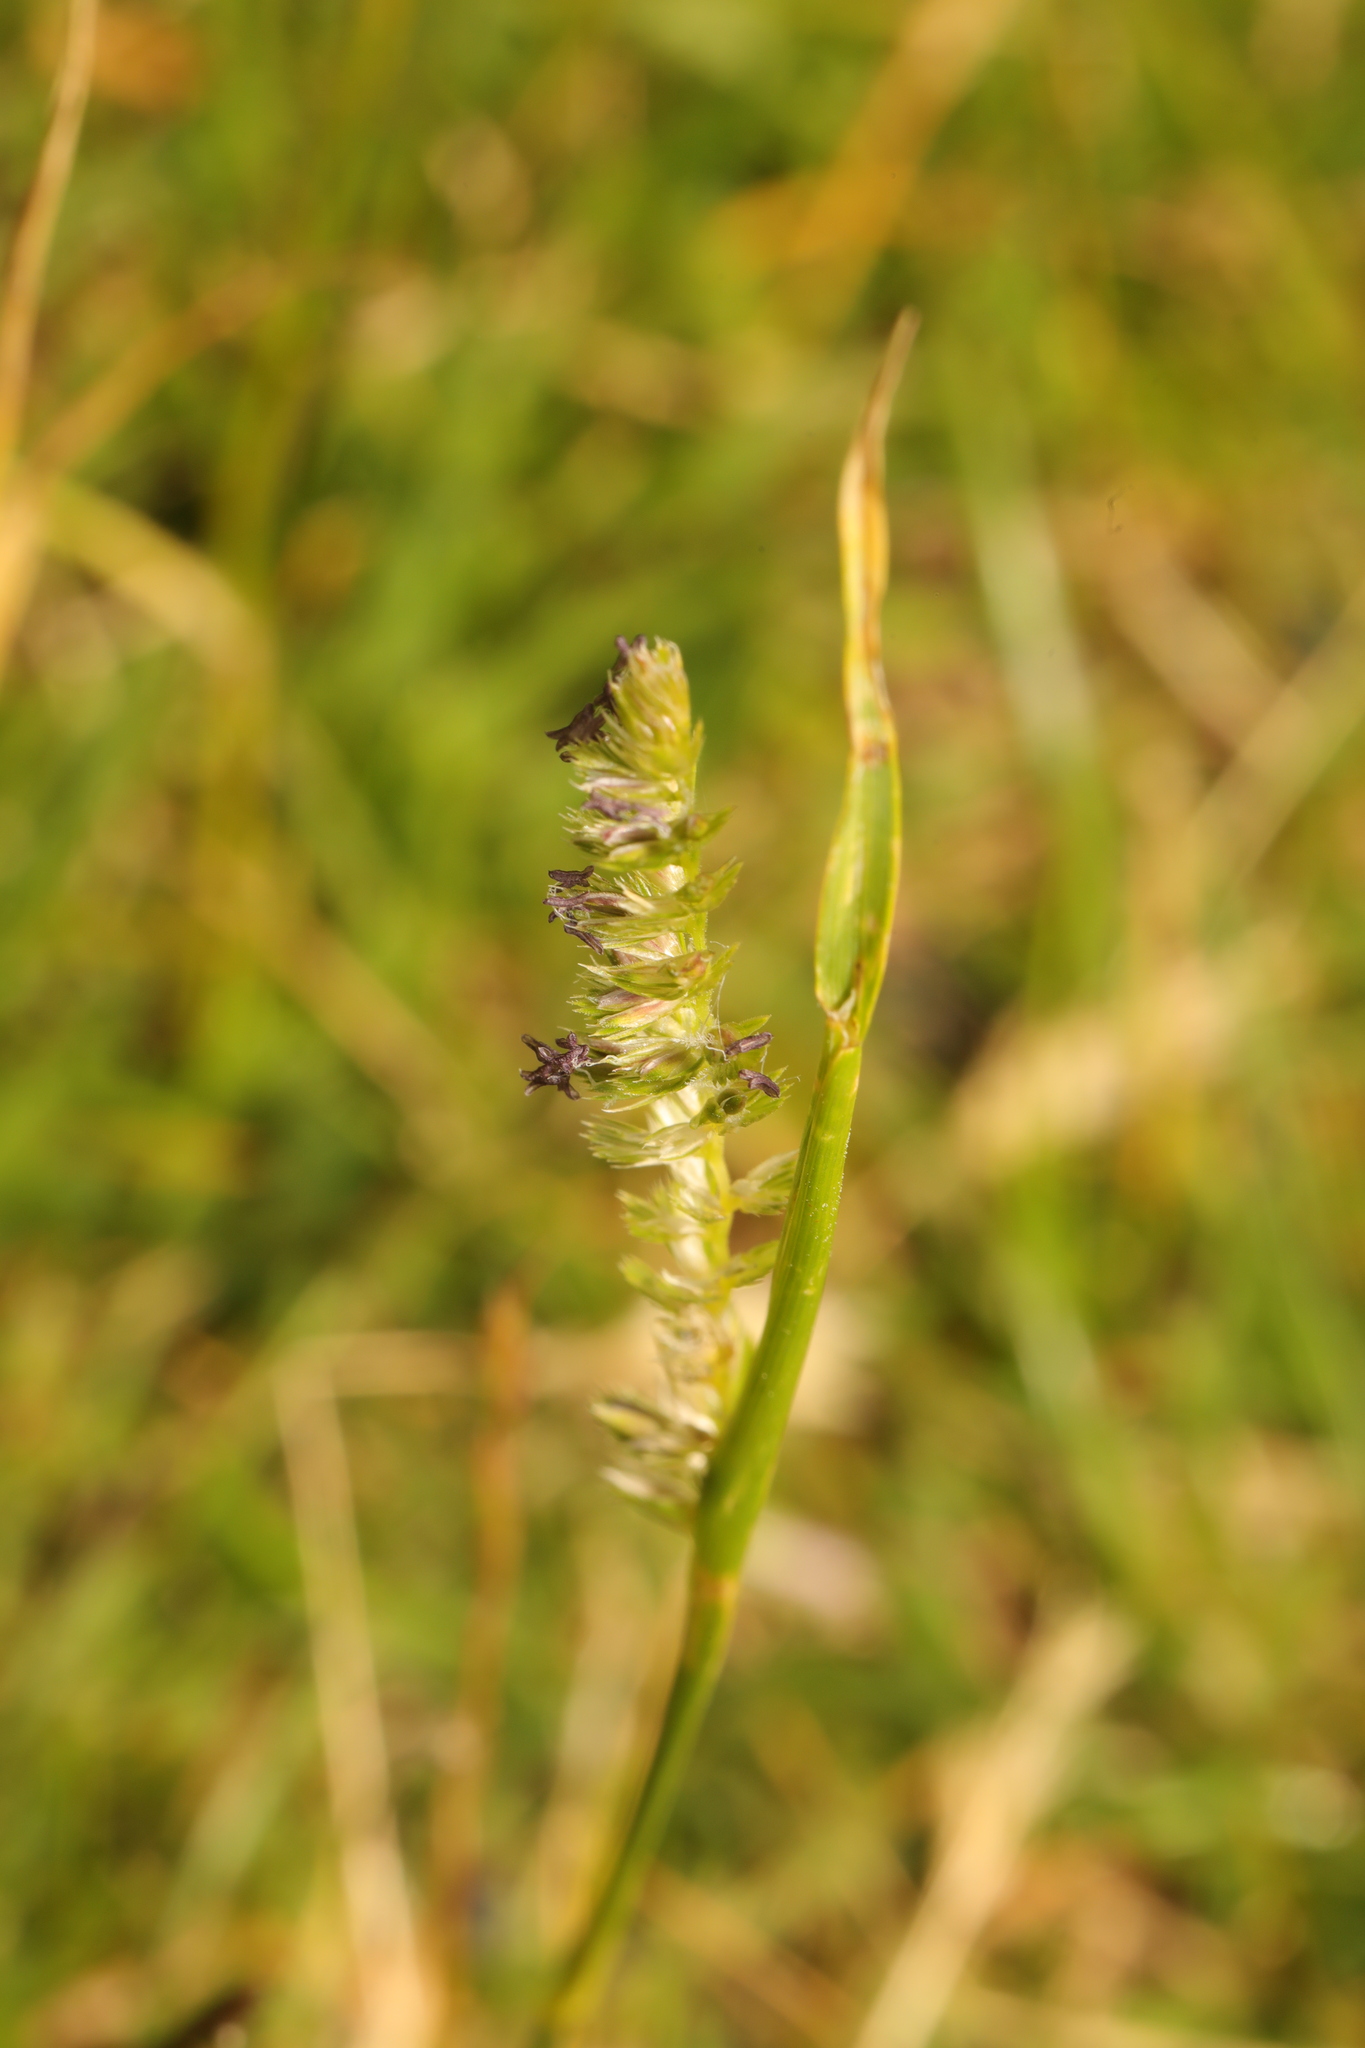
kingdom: Plantae
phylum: Tracheophyta
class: Liliopsida
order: Poales
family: Poaceae
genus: Cynosurus
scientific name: Cynosurus cristatus
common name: Crested dog's-tail
